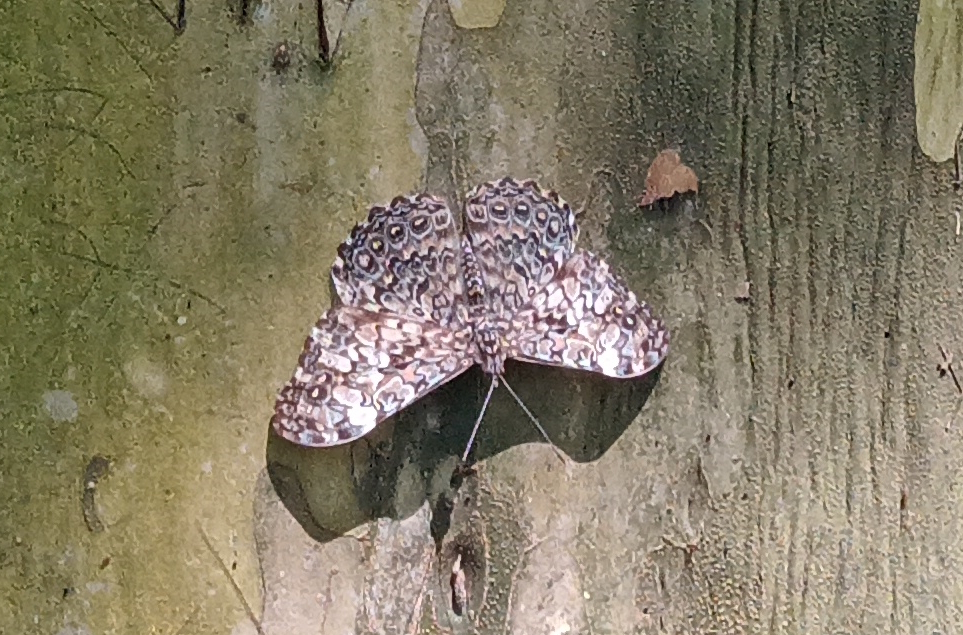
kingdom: Animalia
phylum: Arthropoda
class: Insecta
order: Lepidoptera
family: Nymphalidae
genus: Hamadryas
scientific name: Hamadryas epinome
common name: Epinome cracker
